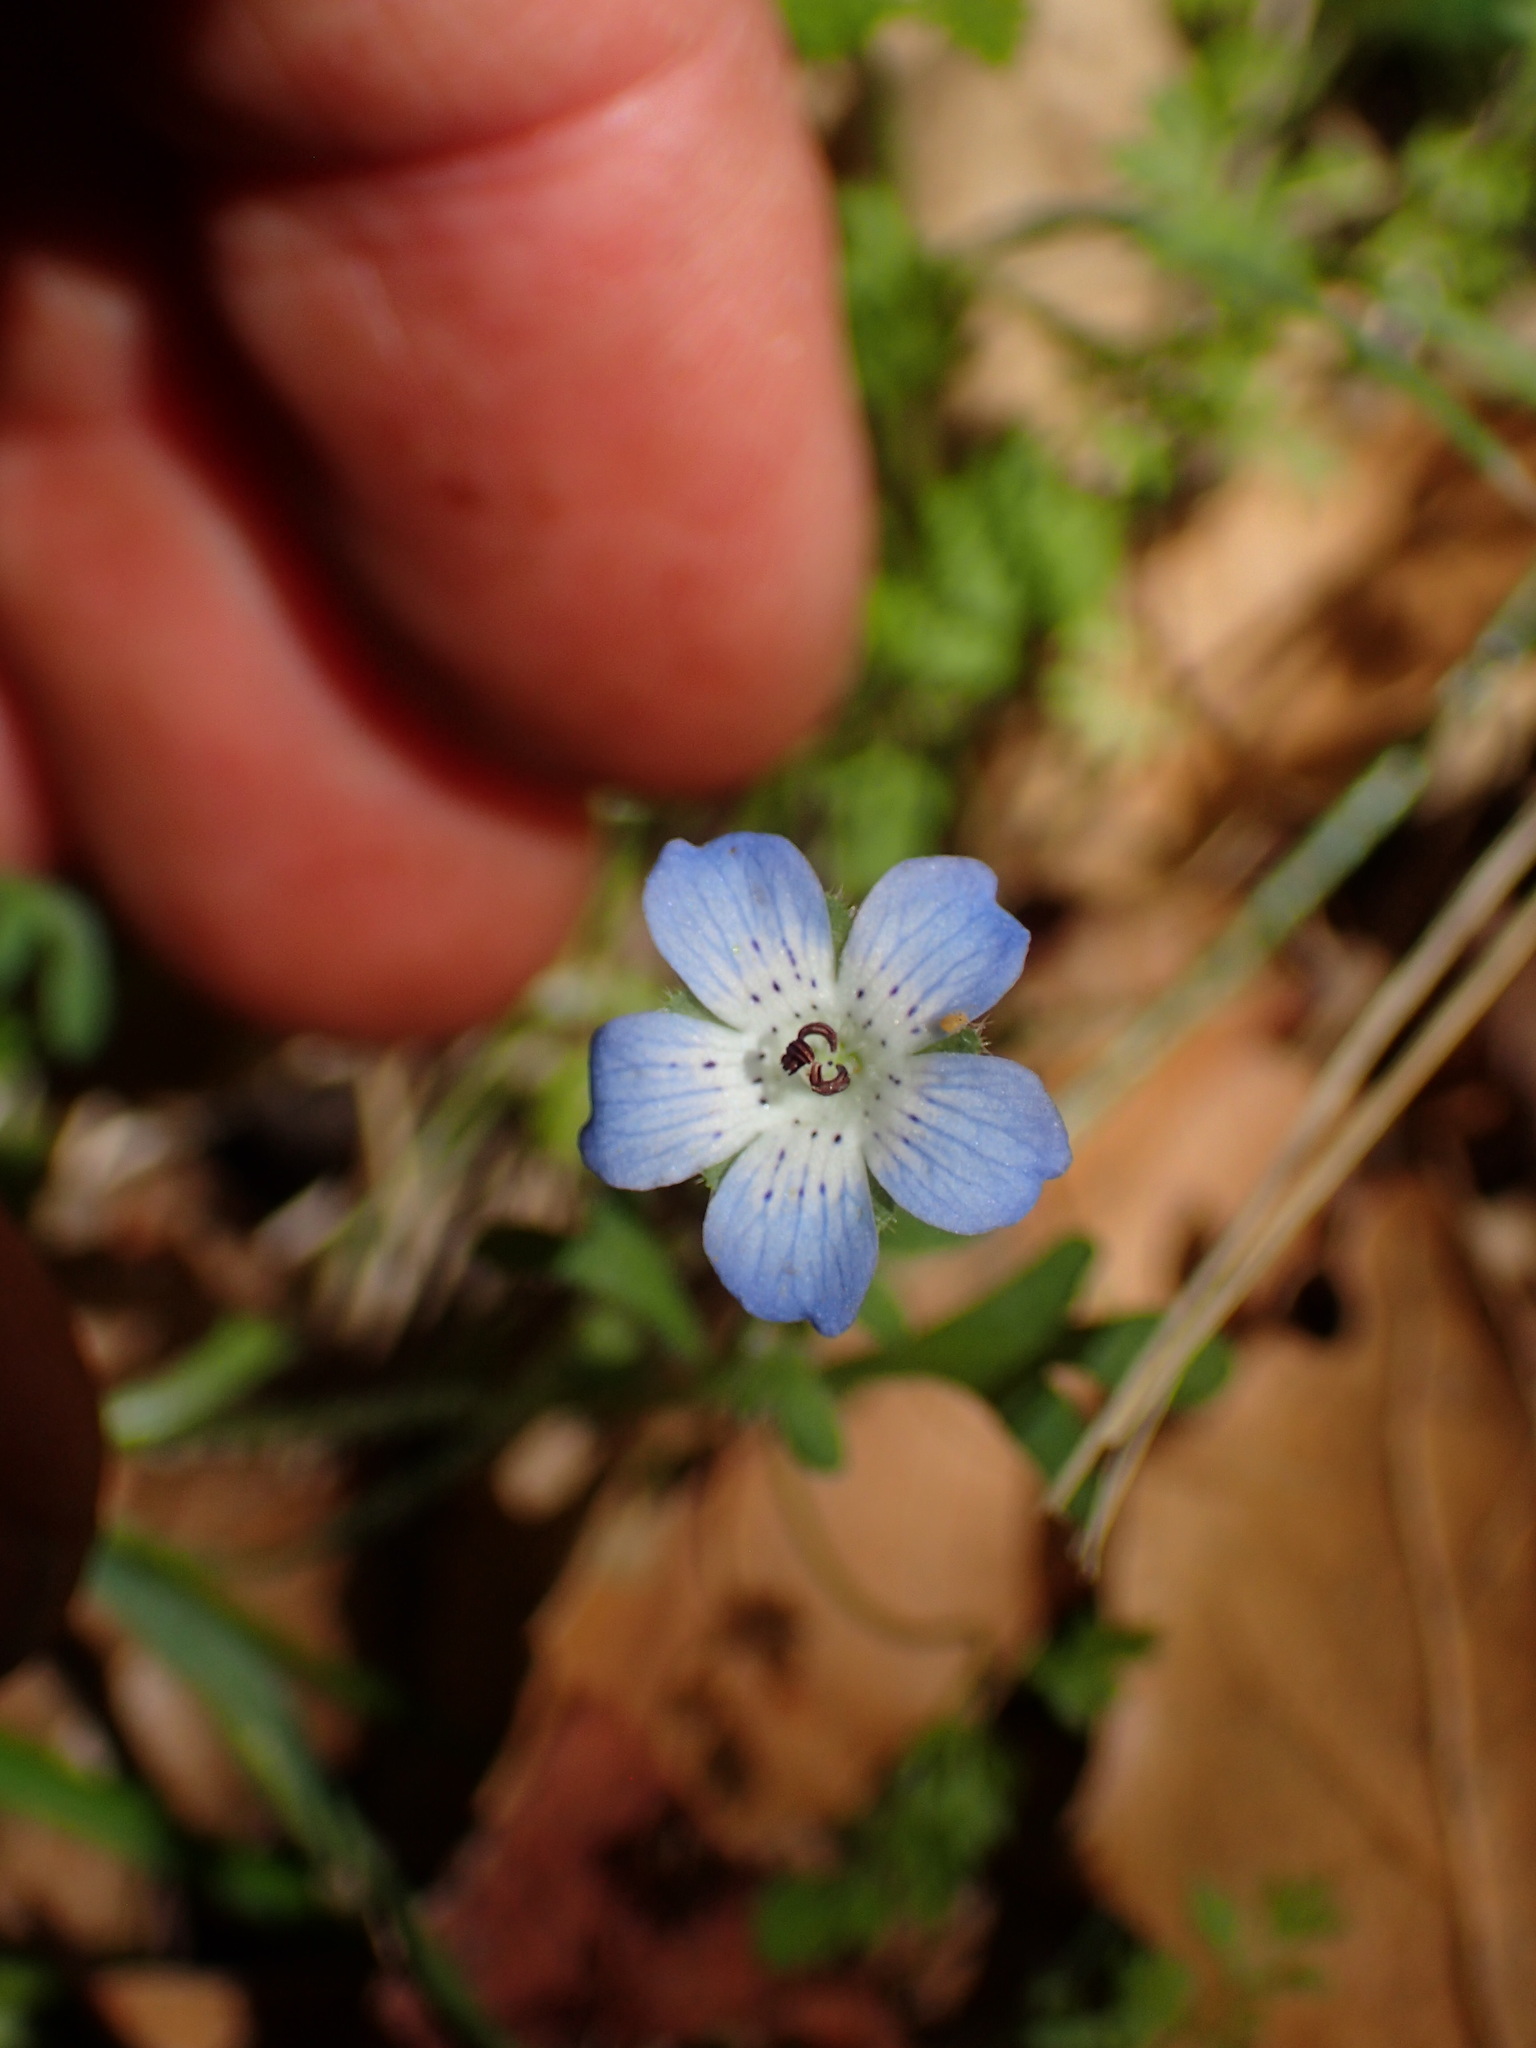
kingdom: Plantae
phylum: Tracheophyta
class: Magnoliopsida
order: Boraginales
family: Hydrophyllaceae
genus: Nemophila
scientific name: Nemophila menziesii
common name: Baby's-blue-eyes
